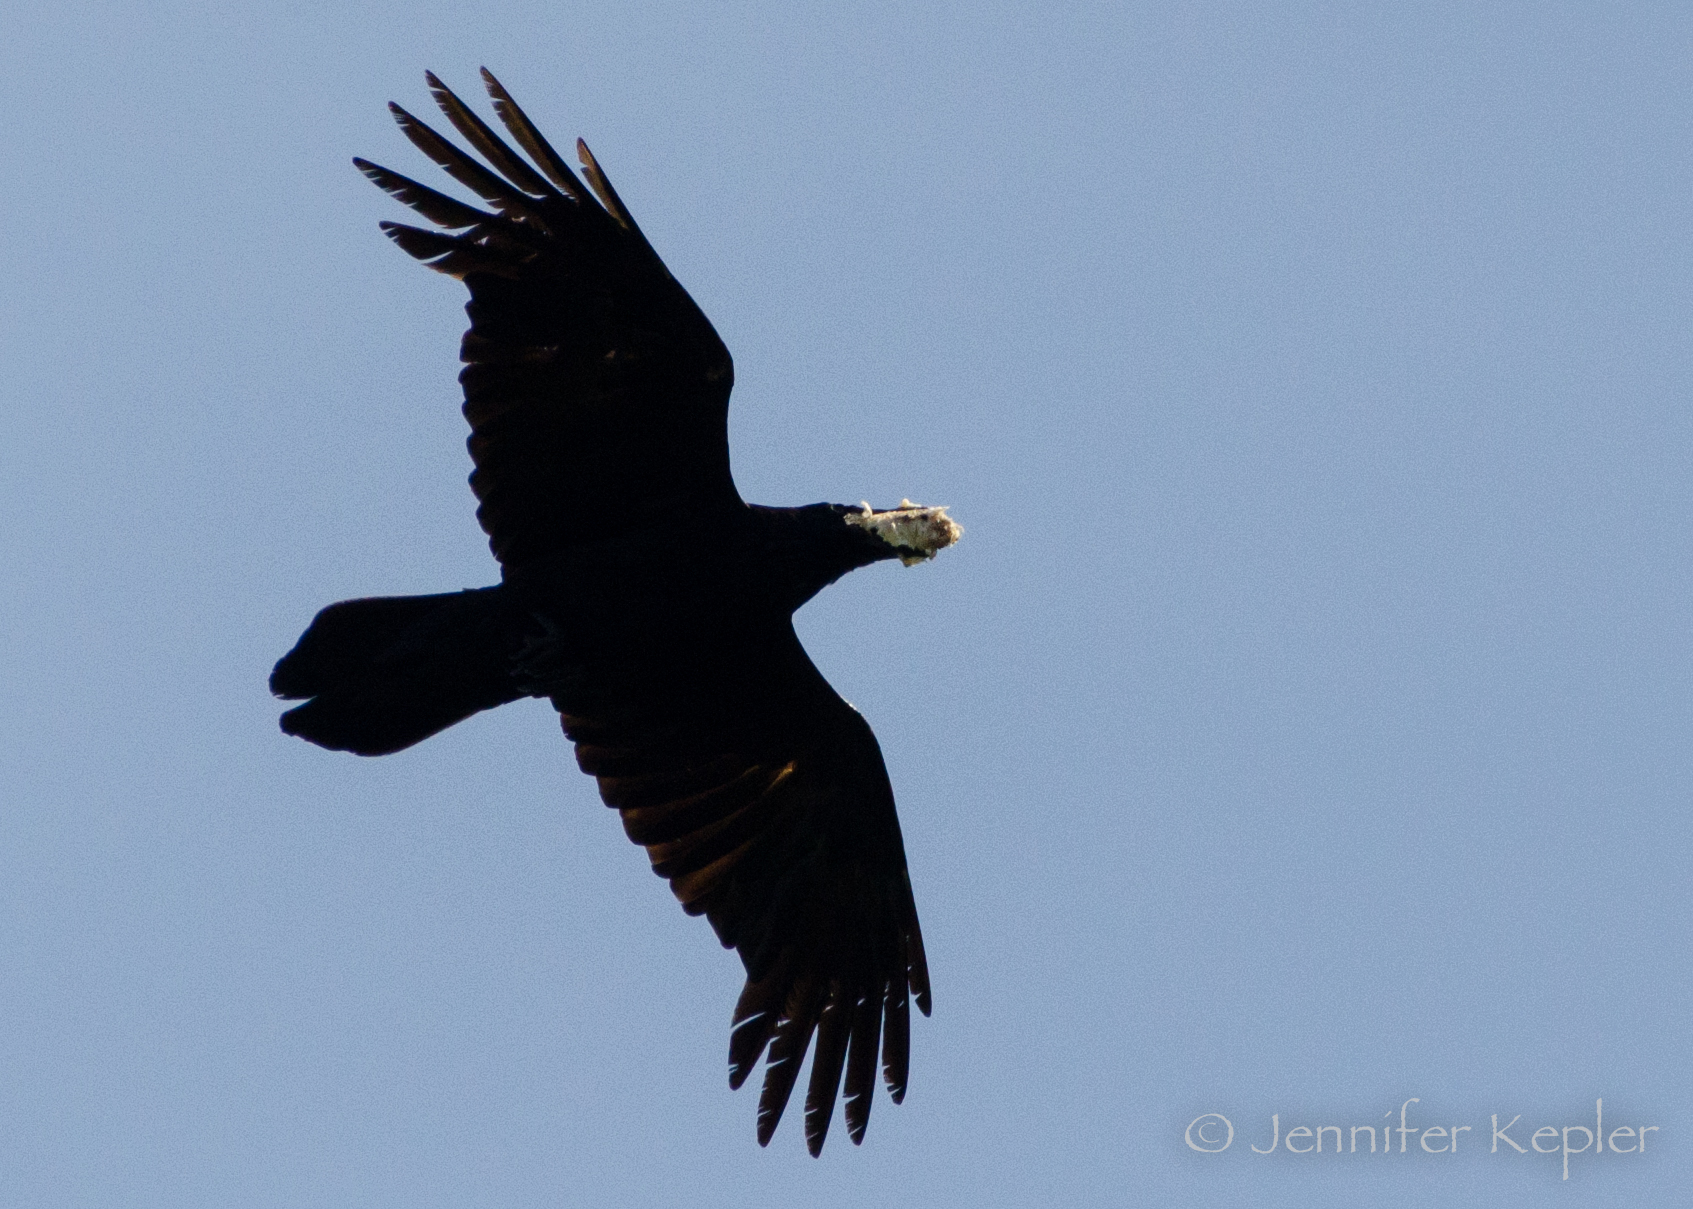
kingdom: Animalia
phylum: Chordata
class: Aves
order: Passeriformes
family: Corvidae
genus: Corvus
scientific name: Corvus corax
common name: Common raven
